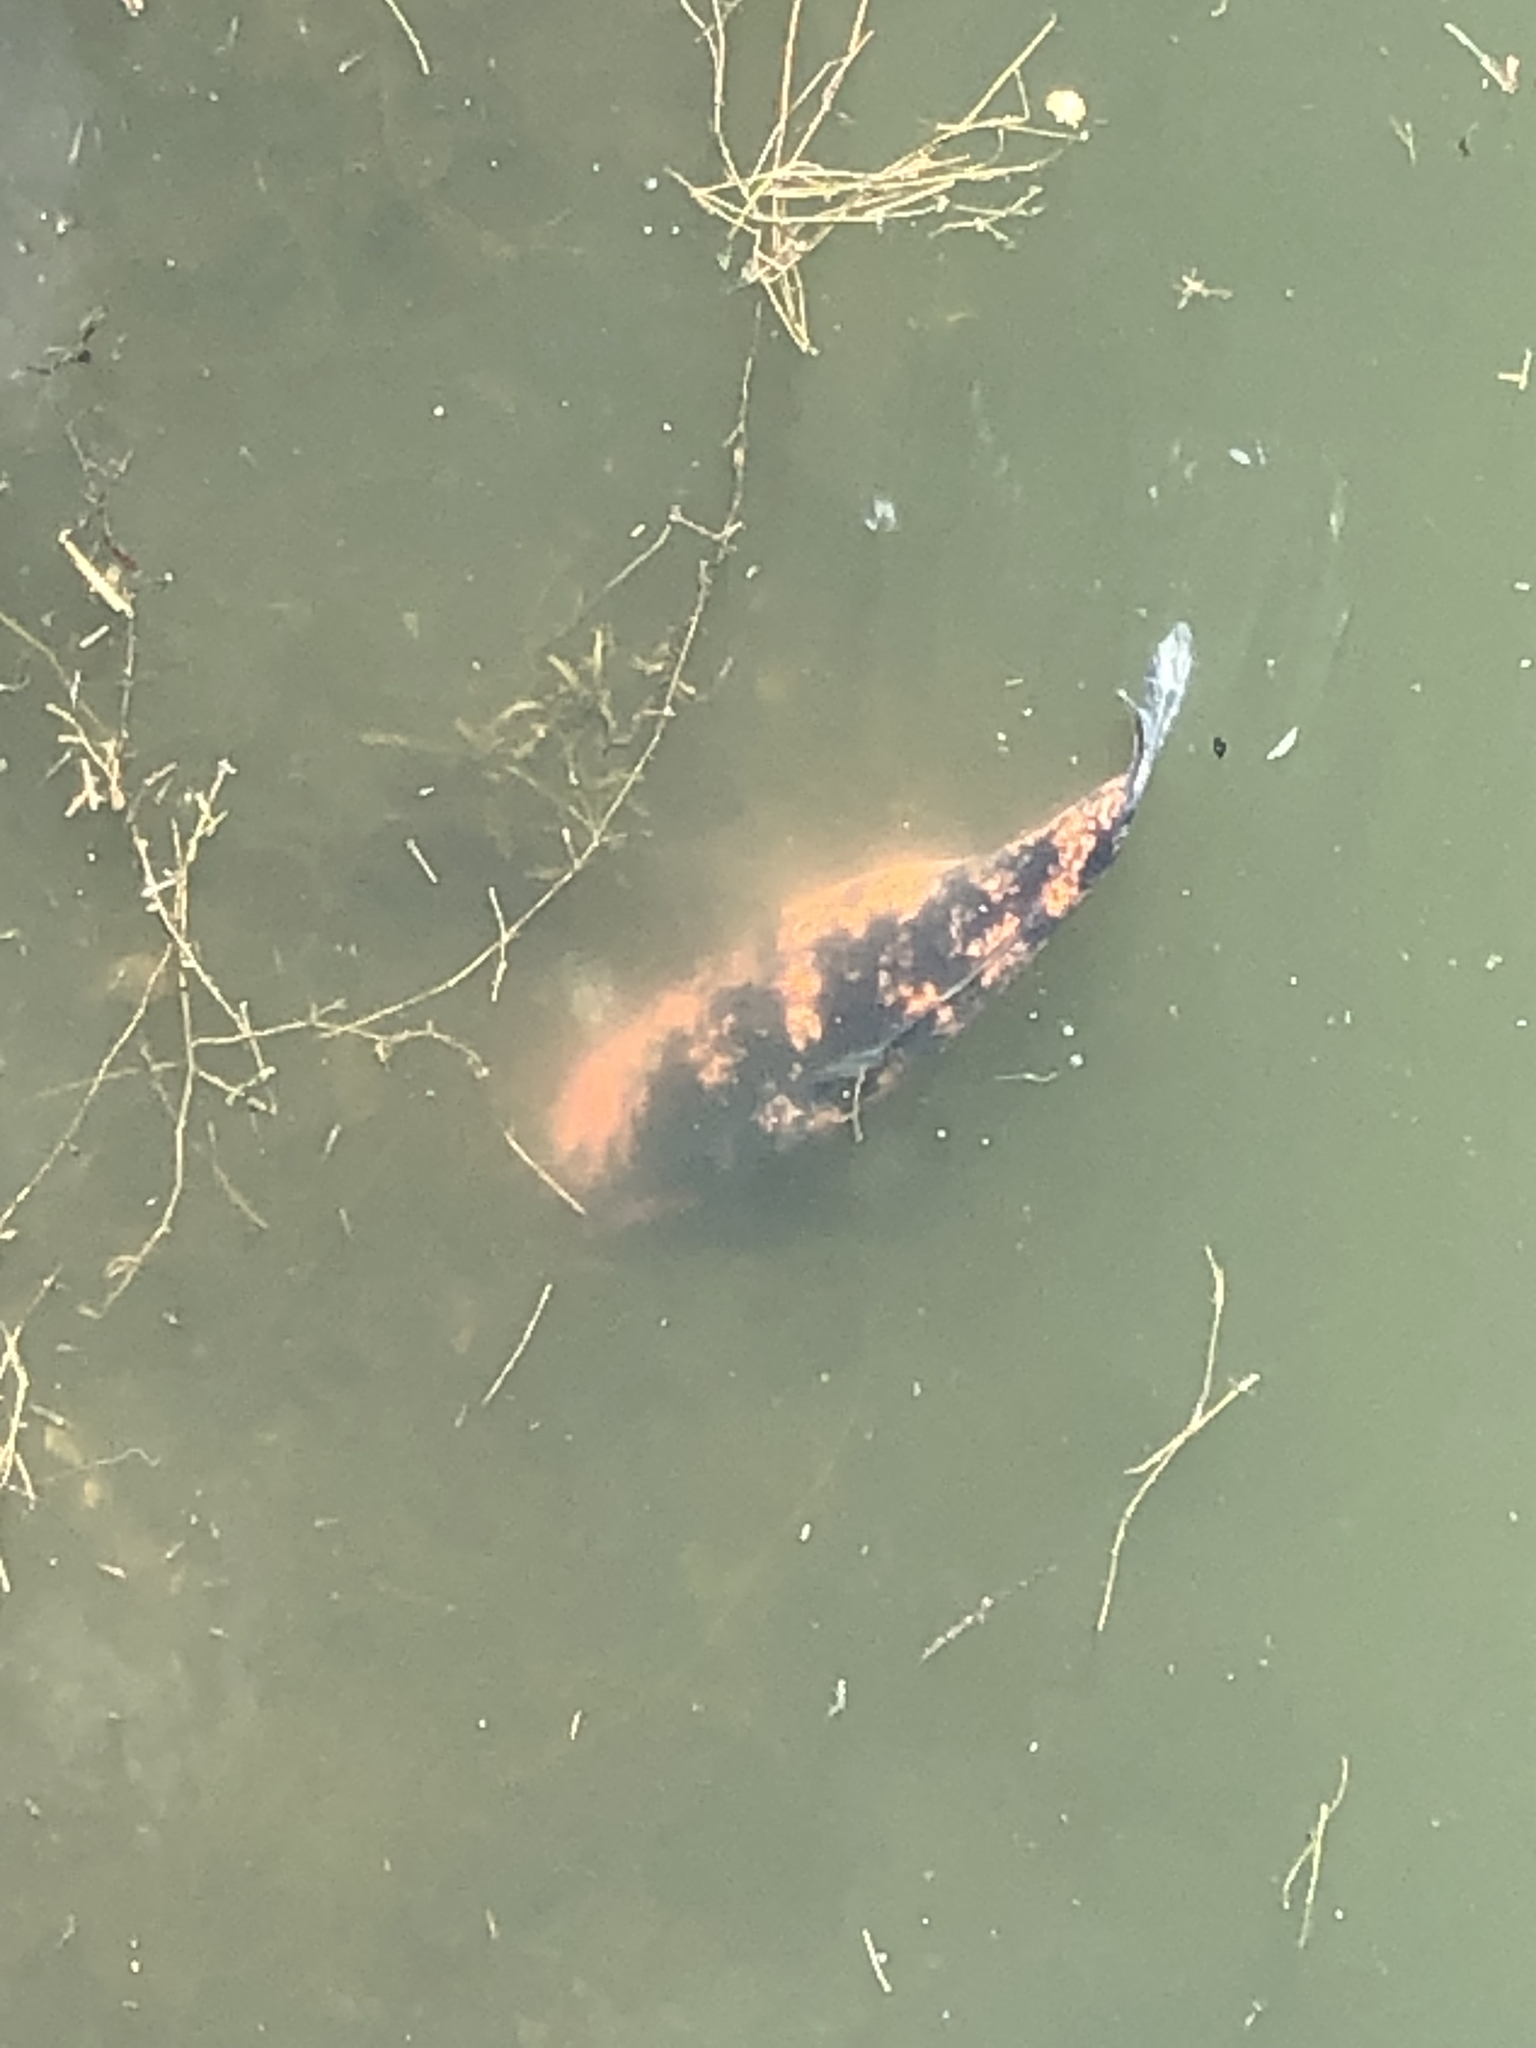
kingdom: Animalia
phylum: Chordata
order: Cypriniformes
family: Cyprinidae
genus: Cyprinus
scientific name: Cyprinus rubrofuscus
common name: Koi
